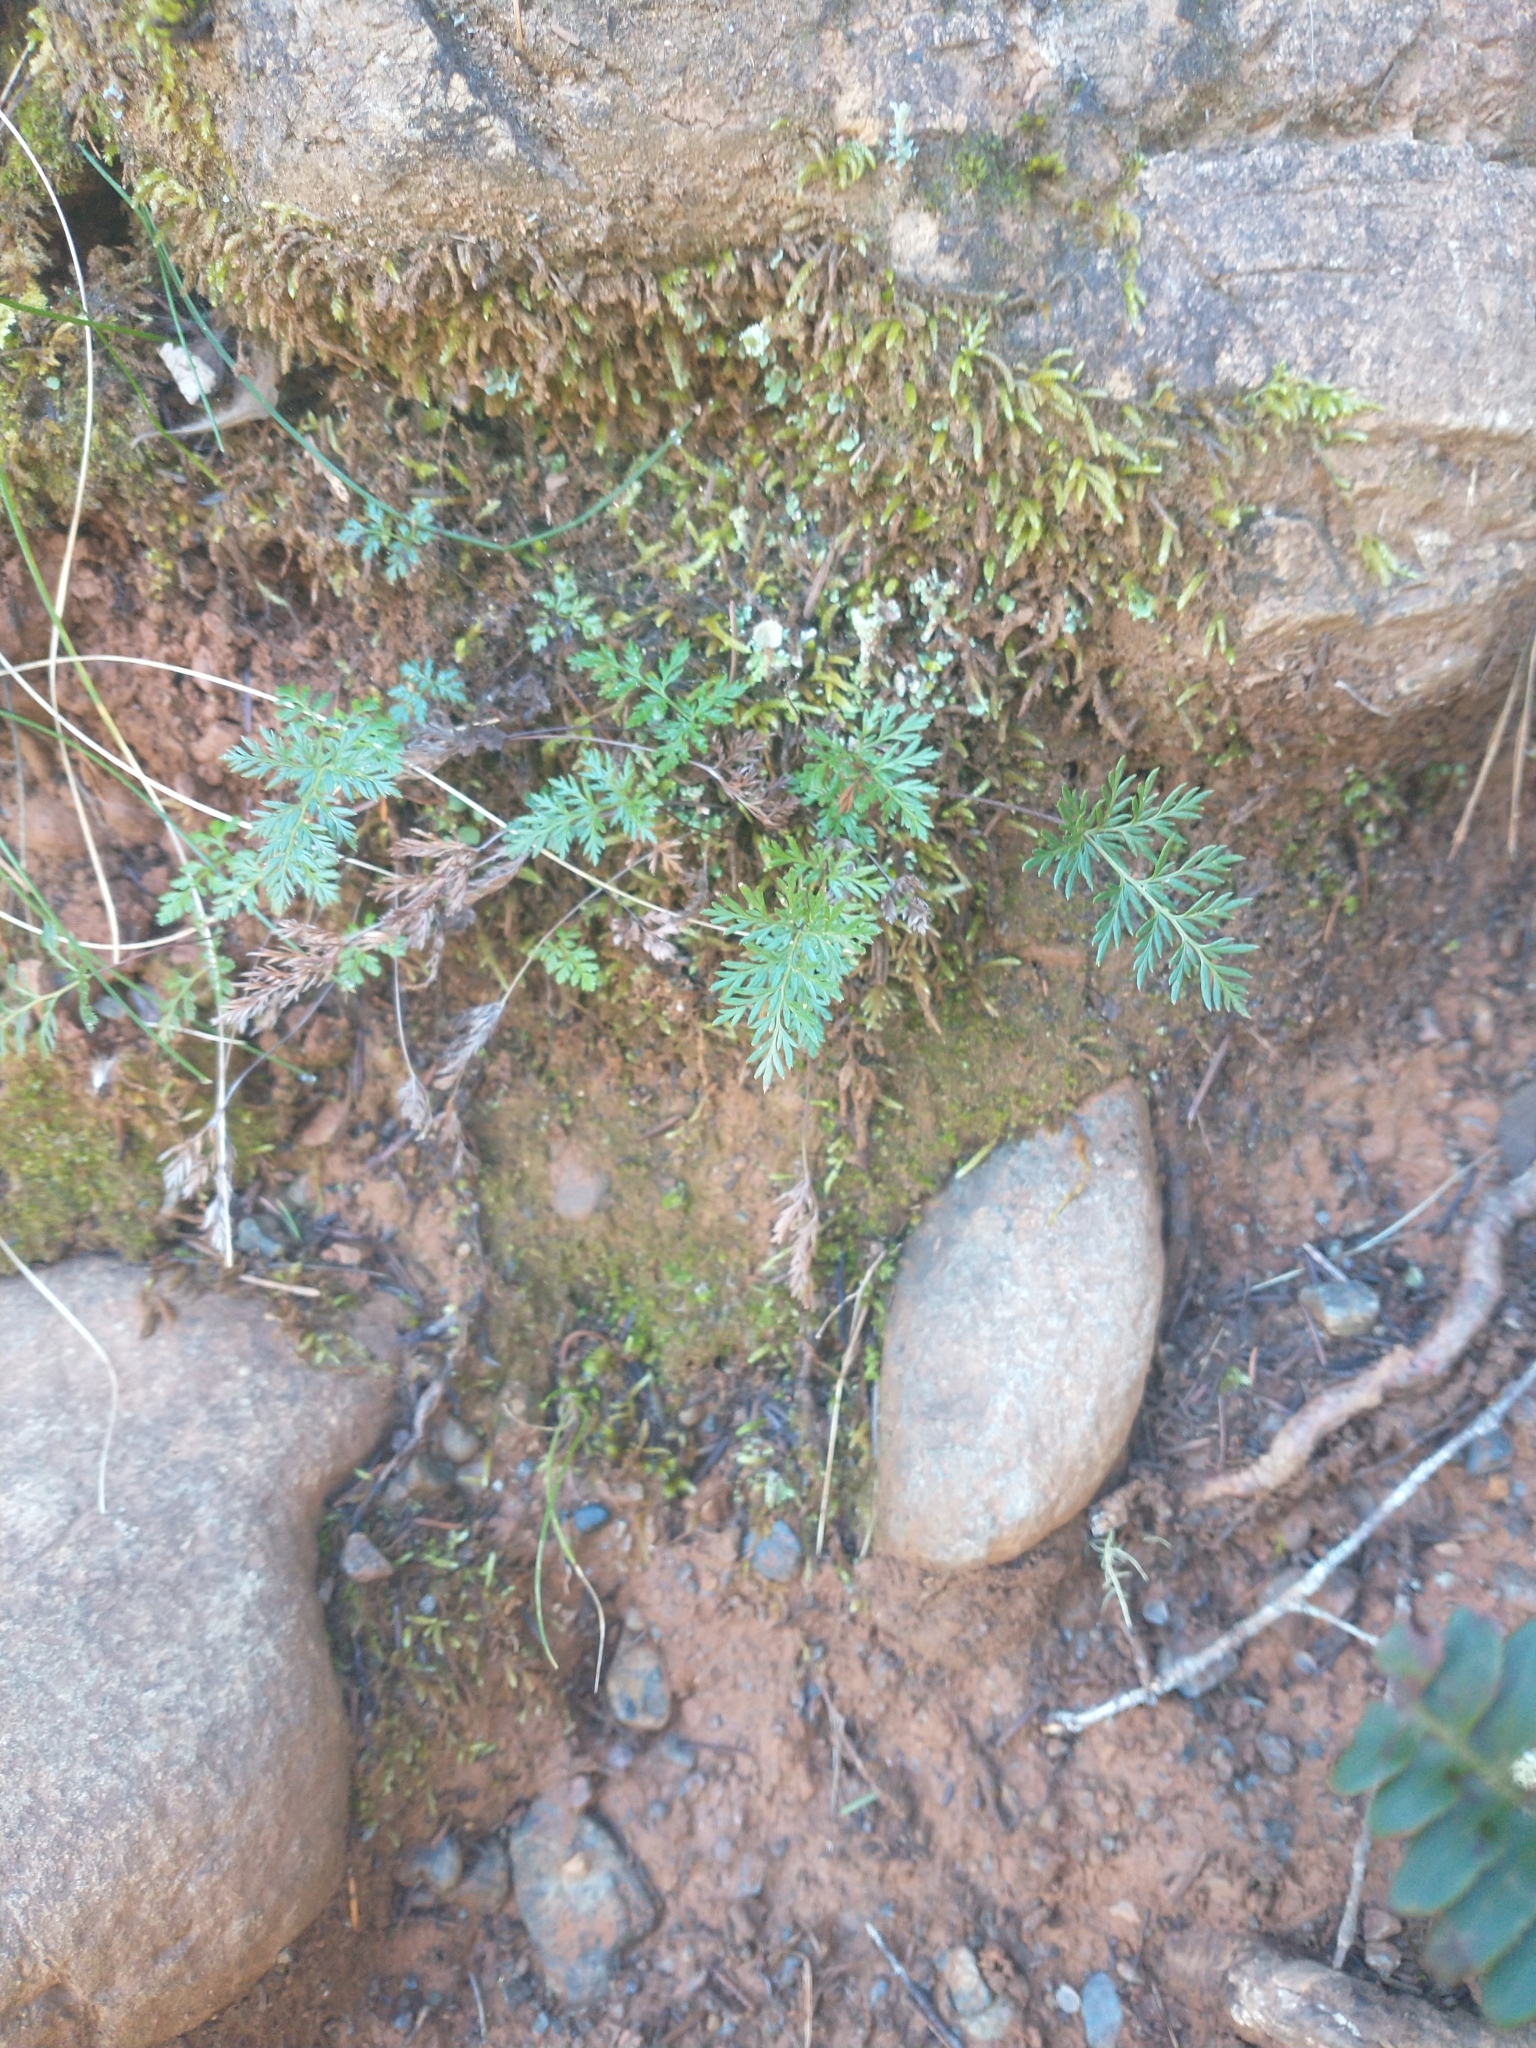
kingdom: Plantae
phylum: Tracheophyta
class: Polypodiopsida
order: Polypodiales
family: Pteridaceae
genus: Aspidotis
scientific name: Aspidotis densa
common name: Indian's dream
